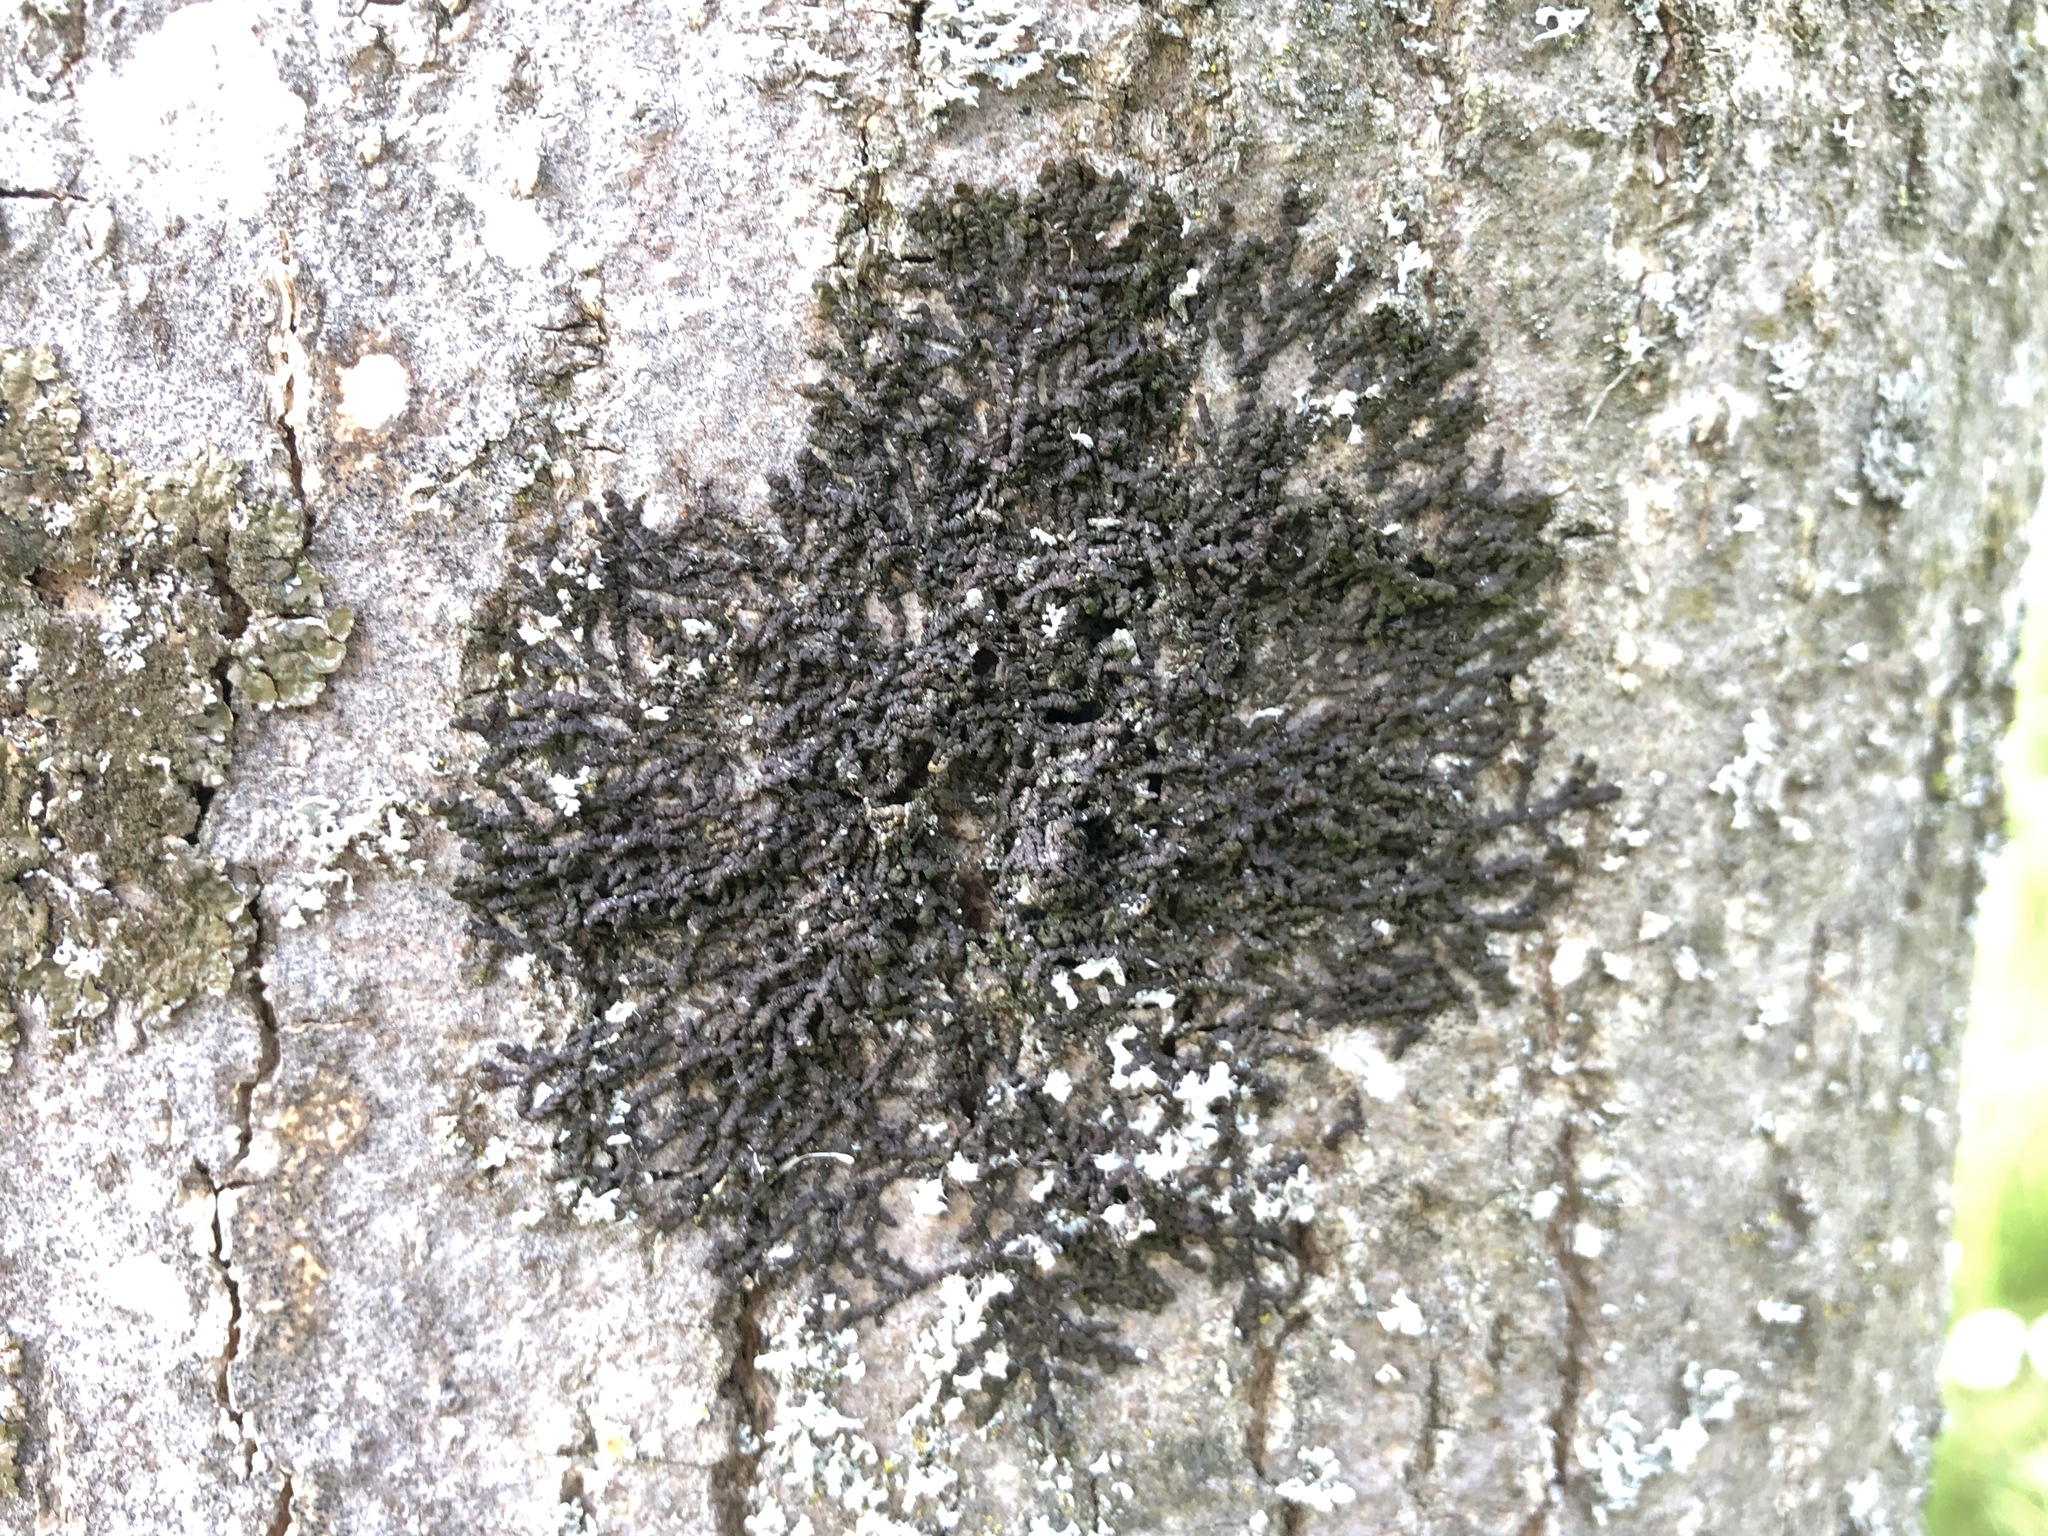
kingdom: Plantae
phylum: Marchantiophyta
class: Jungermanniopsida
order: Porellales
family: Frullaniaceae
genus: Frullania
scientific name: Frullania dilatata
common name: Dilated scalewort
